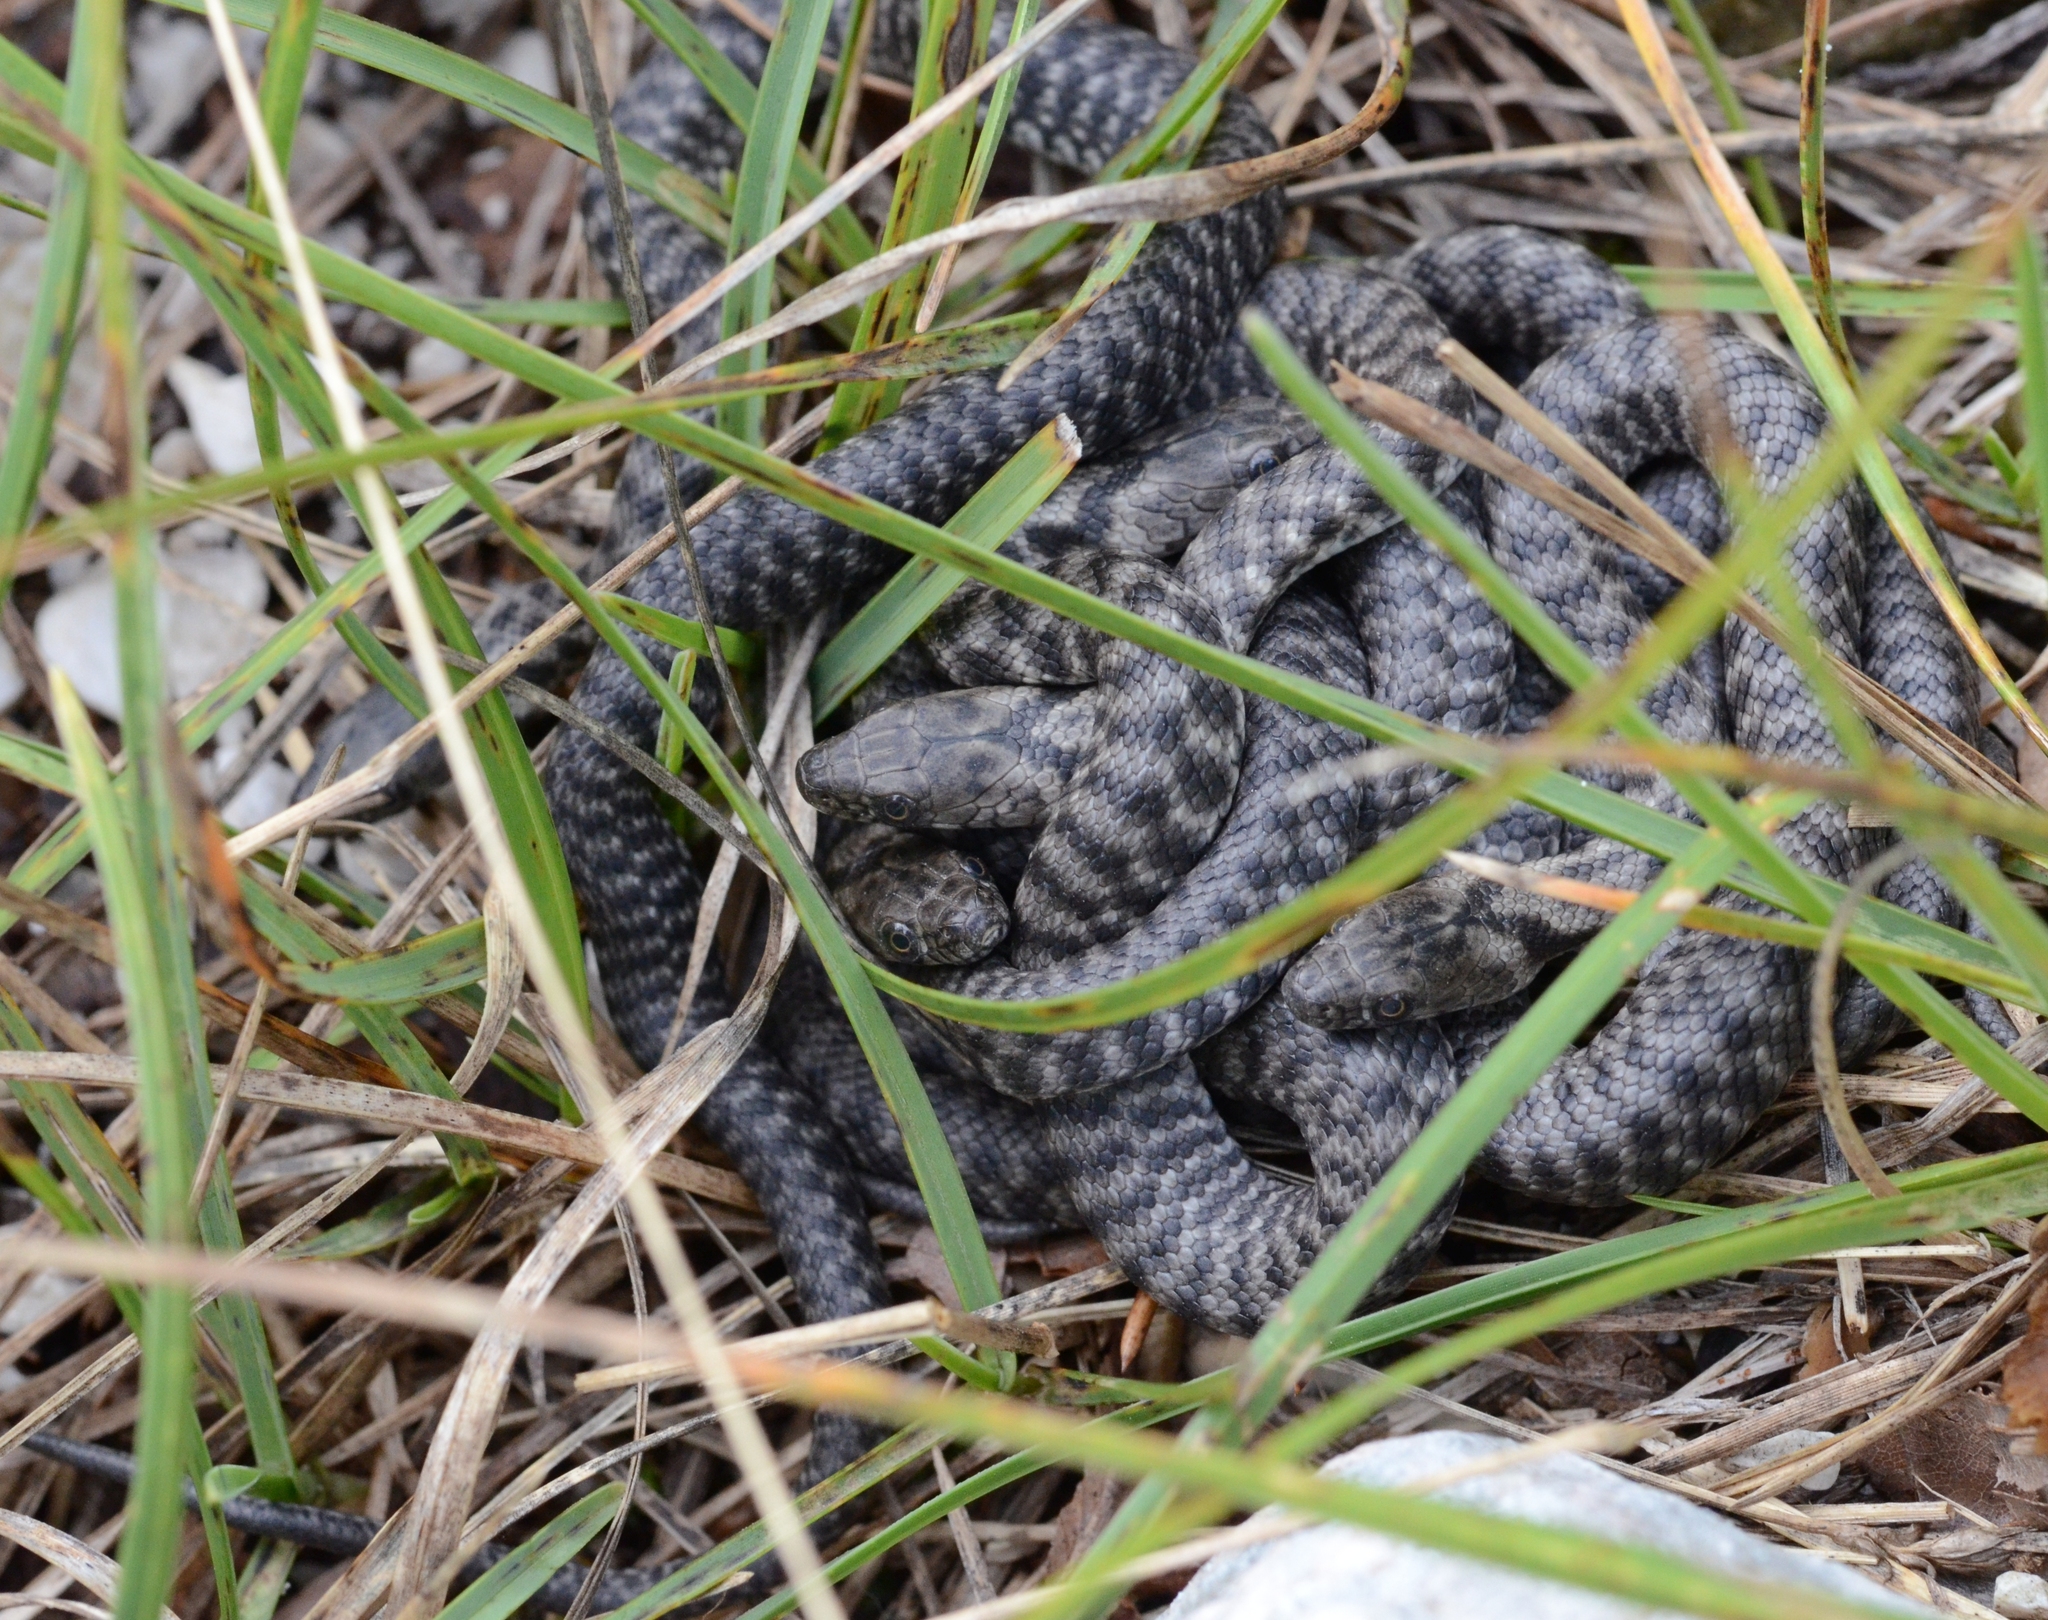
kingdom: Animalia
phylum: Chordata
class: Squamata
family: Colubridae
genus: Natrix
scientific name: Natrix tessellata
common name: Dice snake
